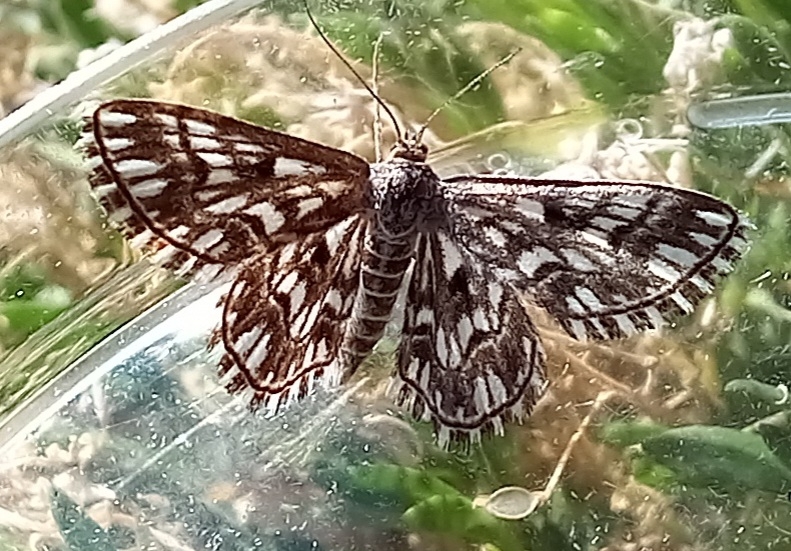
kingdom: Animalia
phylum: Arthropoda
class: Insecta
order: Lepidoptera
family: Geometridae
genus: Cinglis
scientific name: Cinglis andalusiaria
